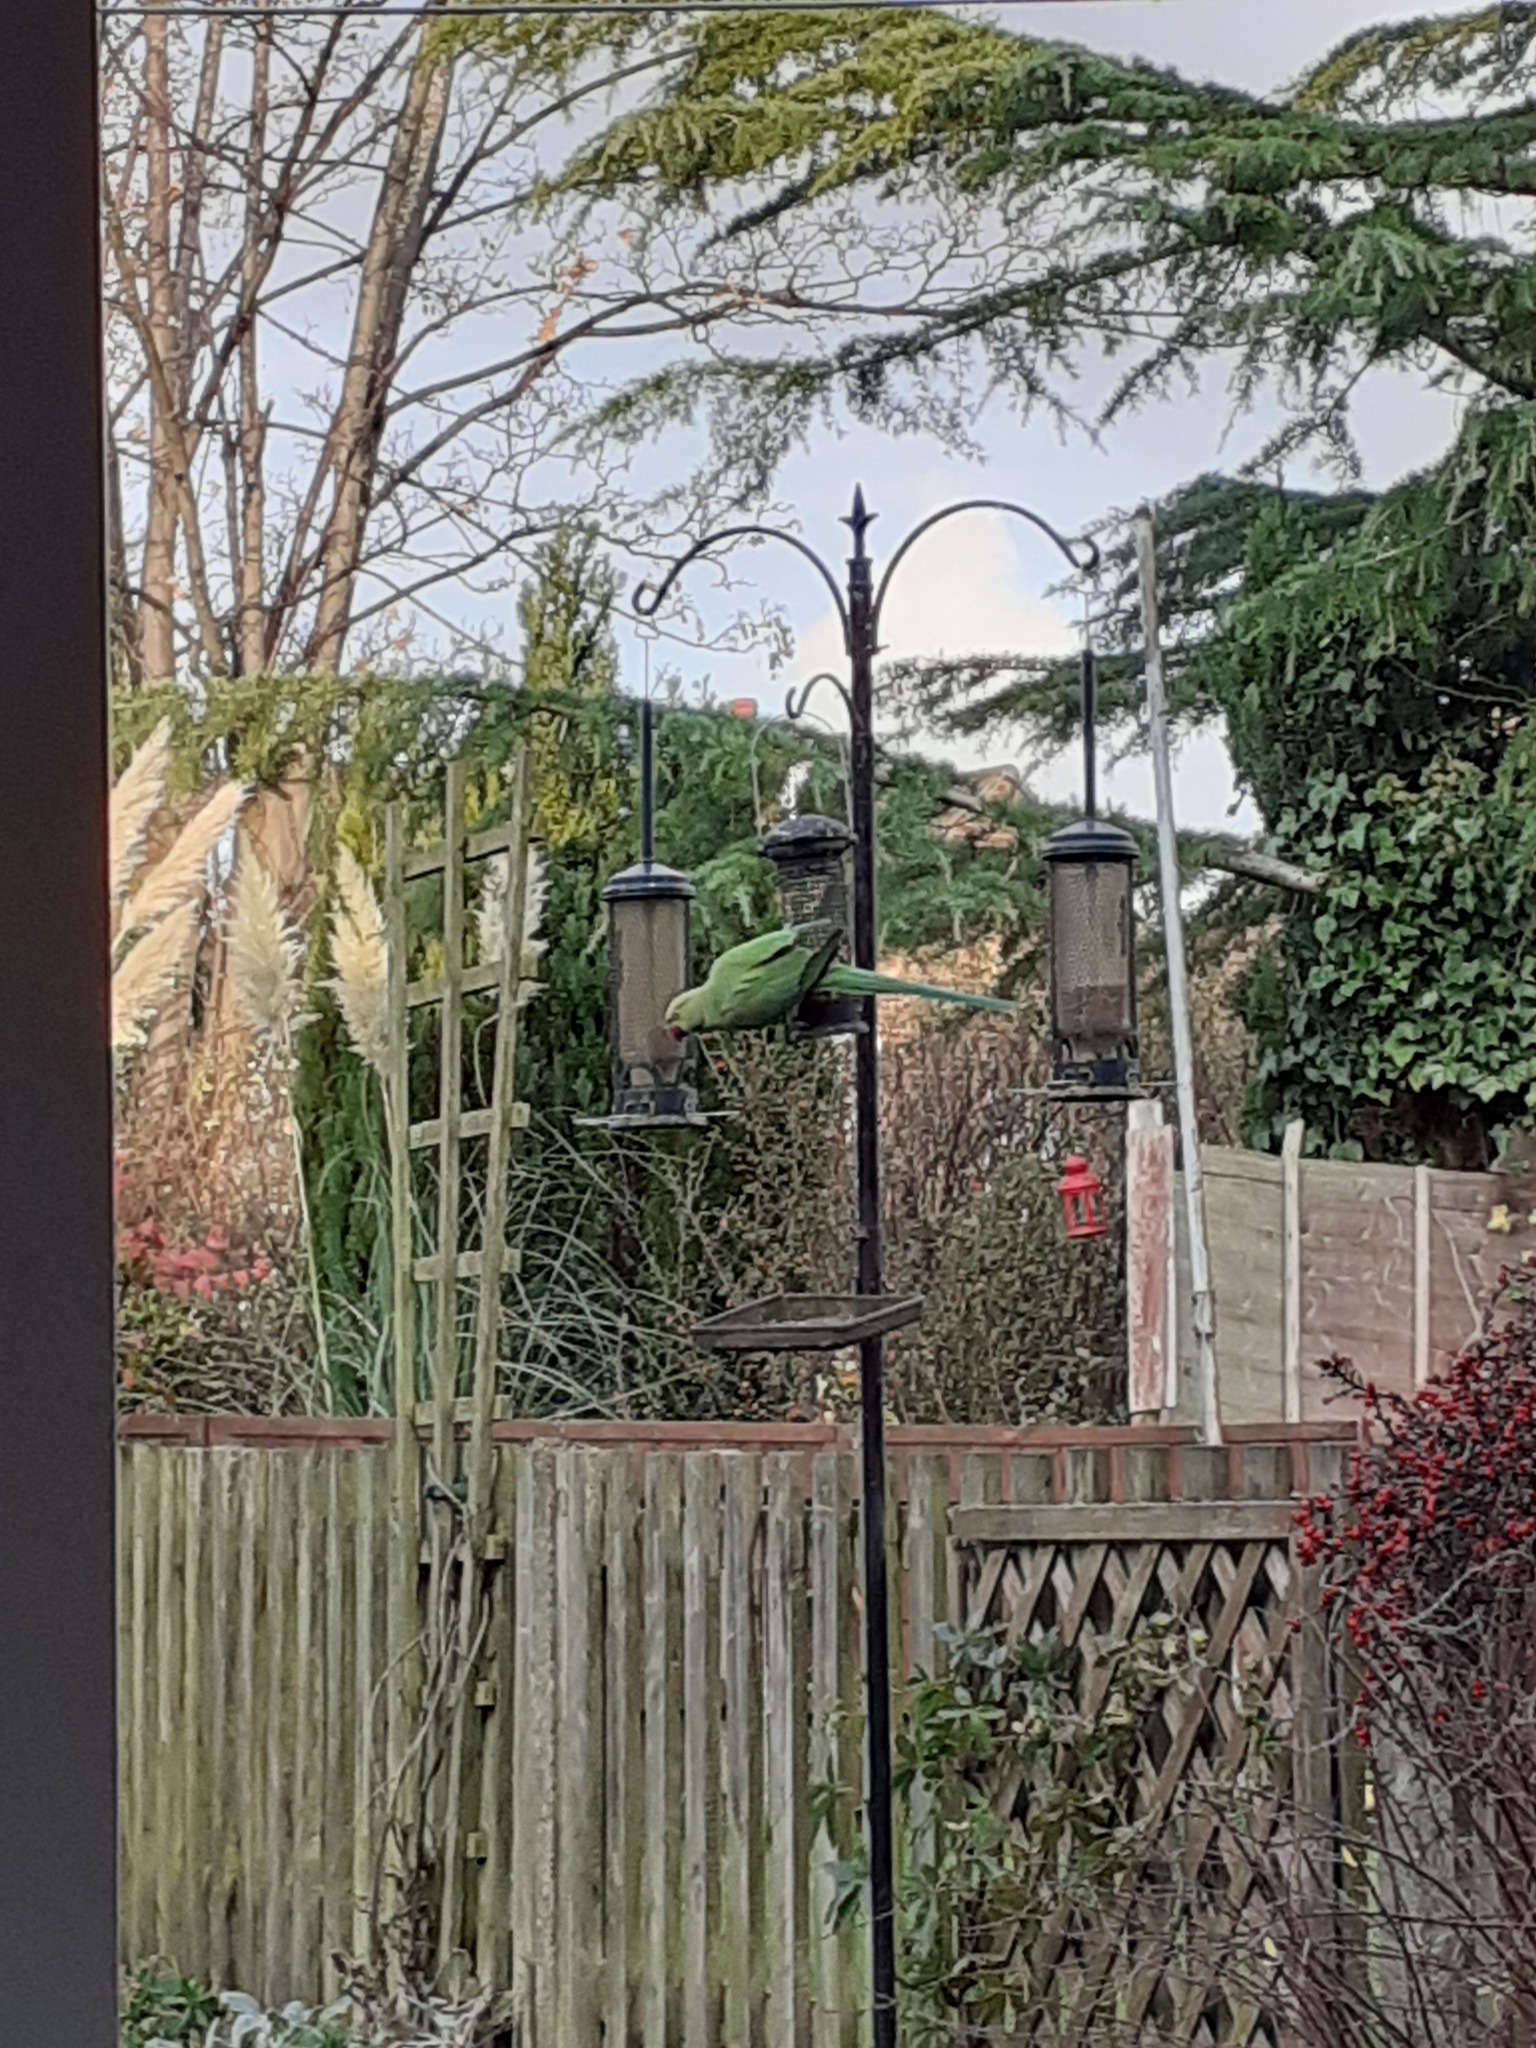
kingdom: Animalia
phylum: Chordata
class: Aves
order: Psittaciformes
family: Psittacidae
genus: Psittacula
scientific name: Psittacula krameri
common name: Rose-ringed parakeet
